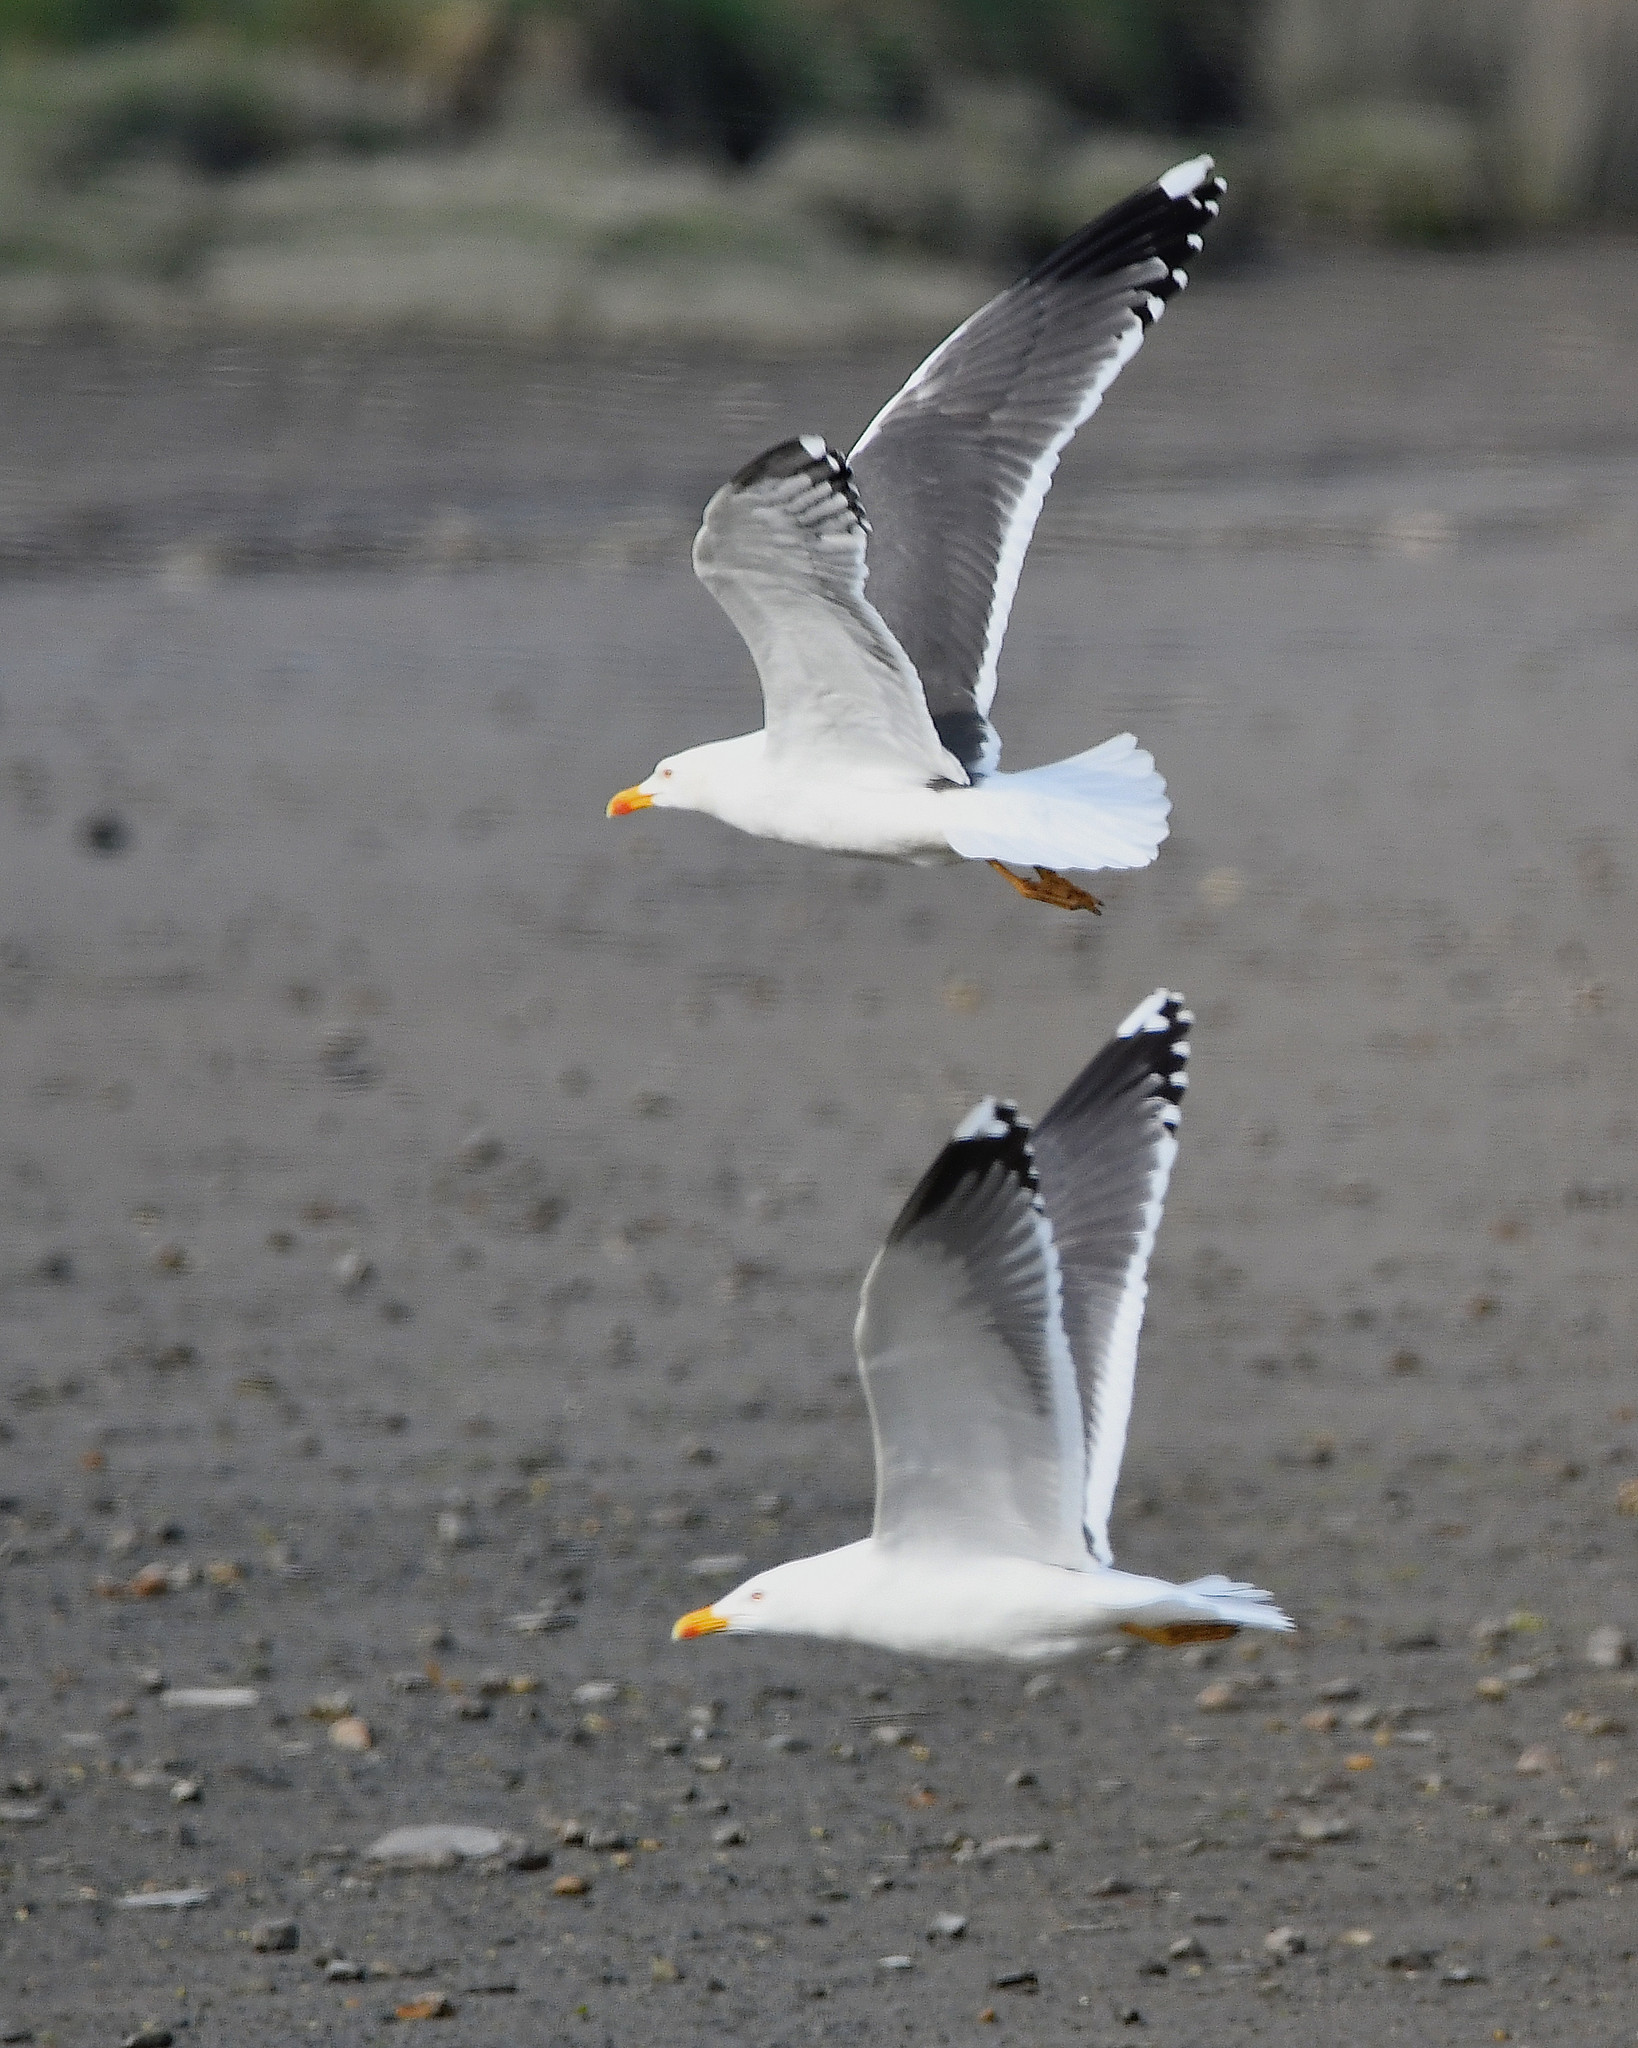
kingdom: Animalia
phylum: Chordata
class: Aves
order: Charadriiformes
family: Laridae
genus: Larus
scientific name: Larus fuscus
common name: Lesser black-backed gull
